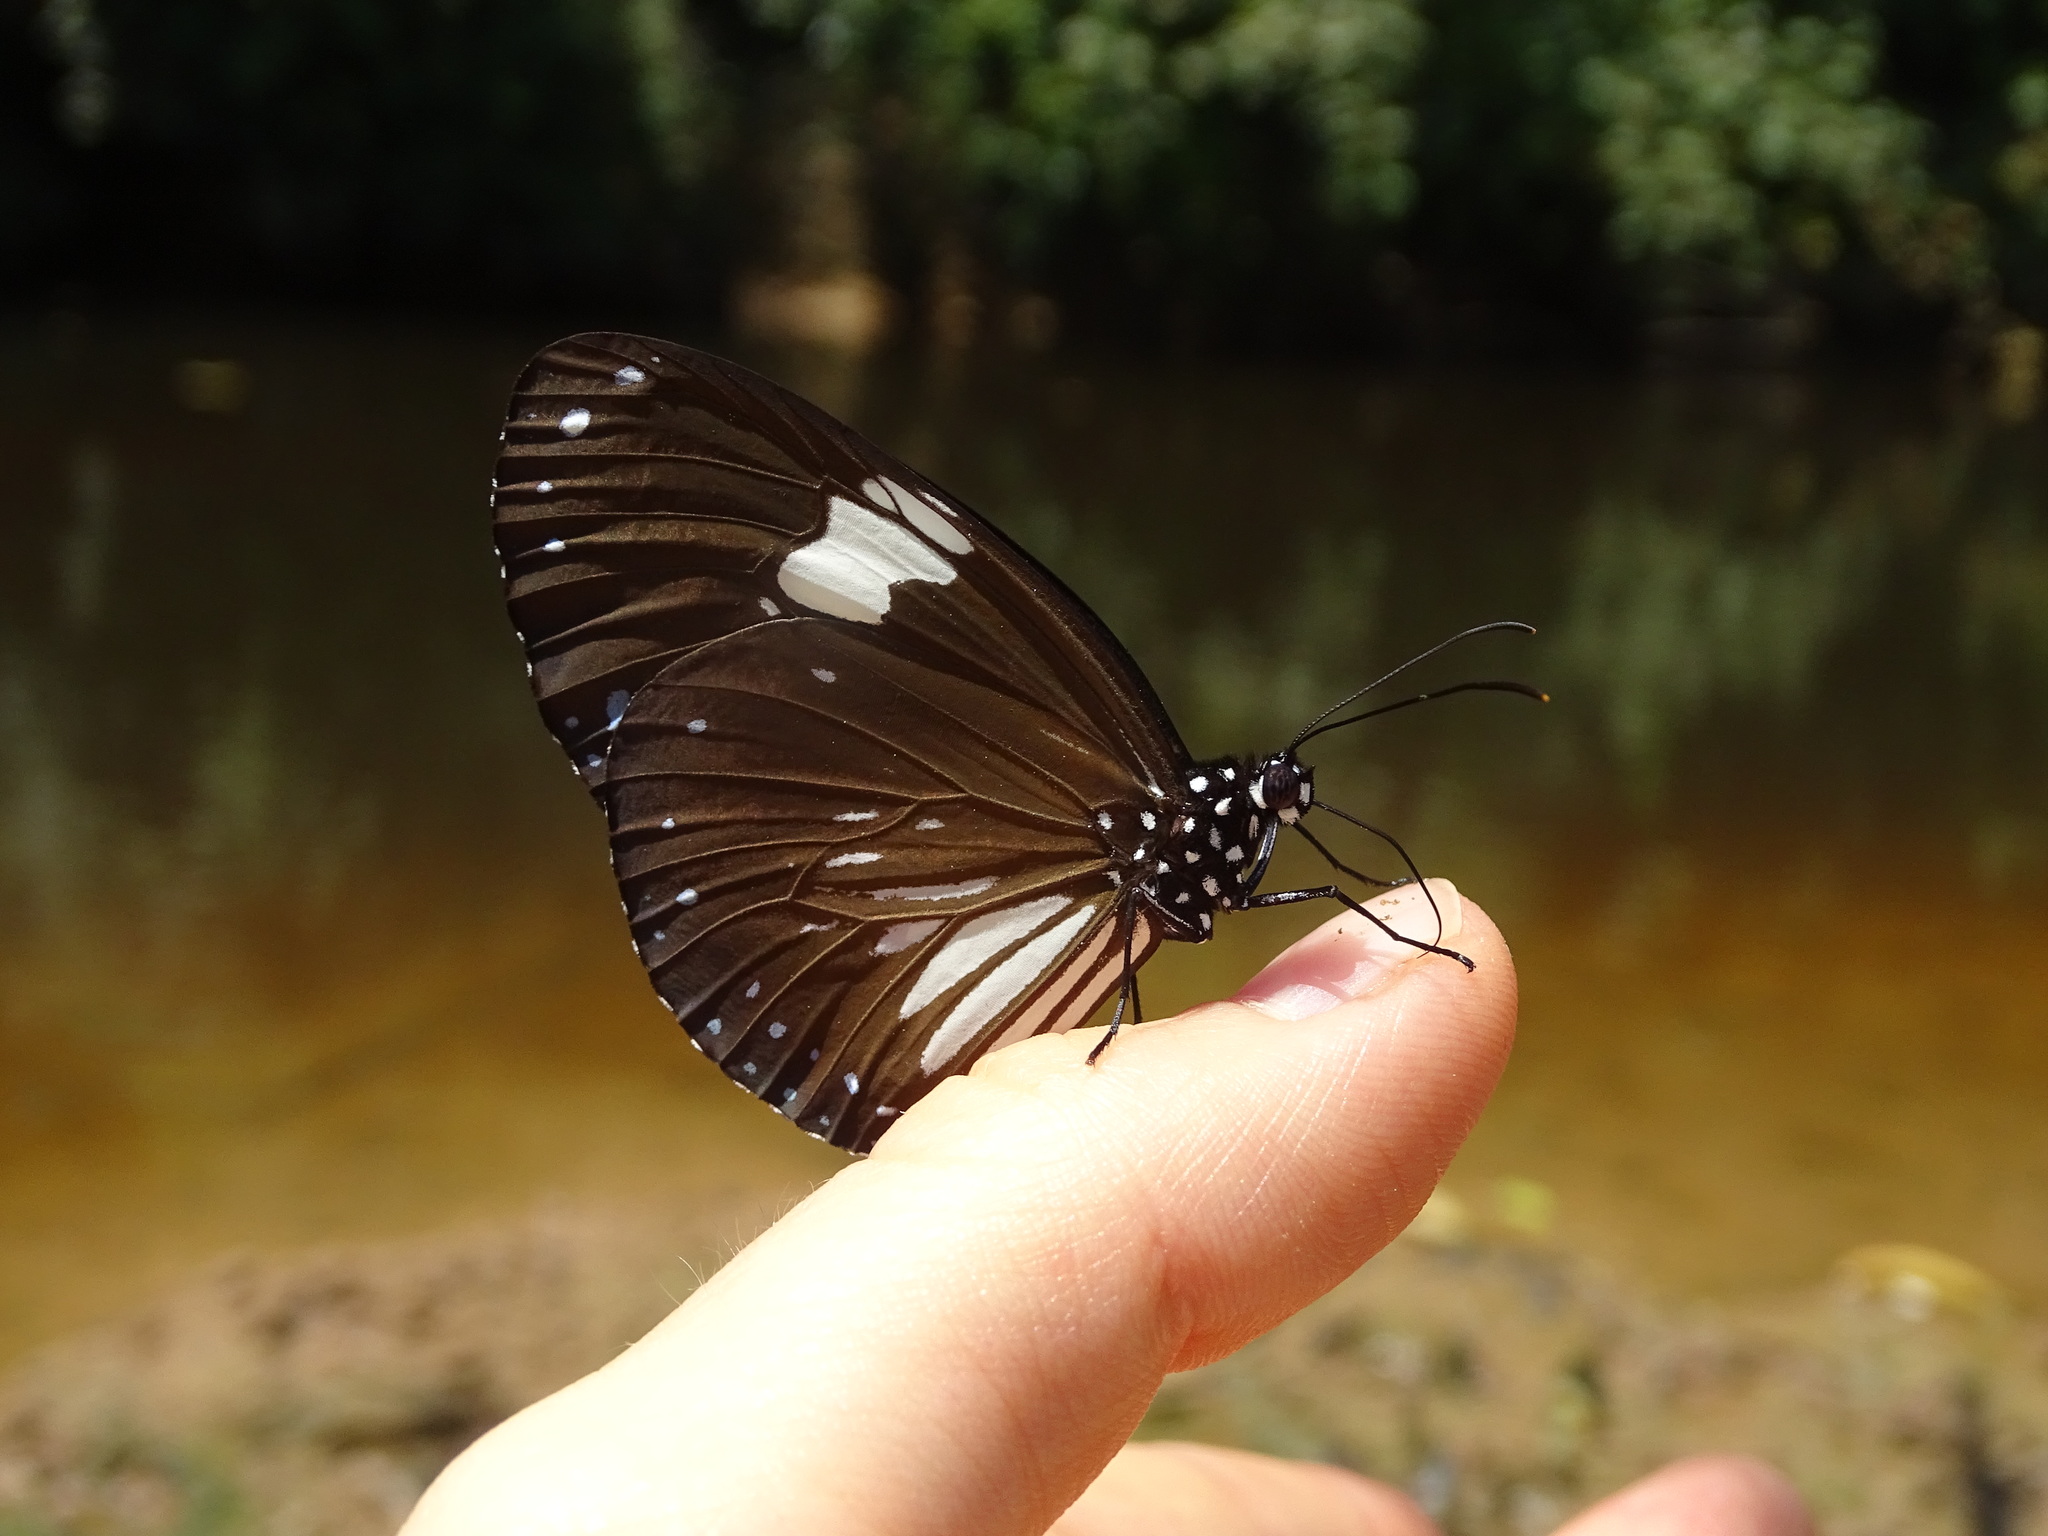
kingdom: Animalia
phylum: Arthropoda
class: Insecta
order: Lepidoptera
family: Nymphalidae
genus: Euploea
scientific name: Euploea radamanthus
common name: Magpie crow butterfly
